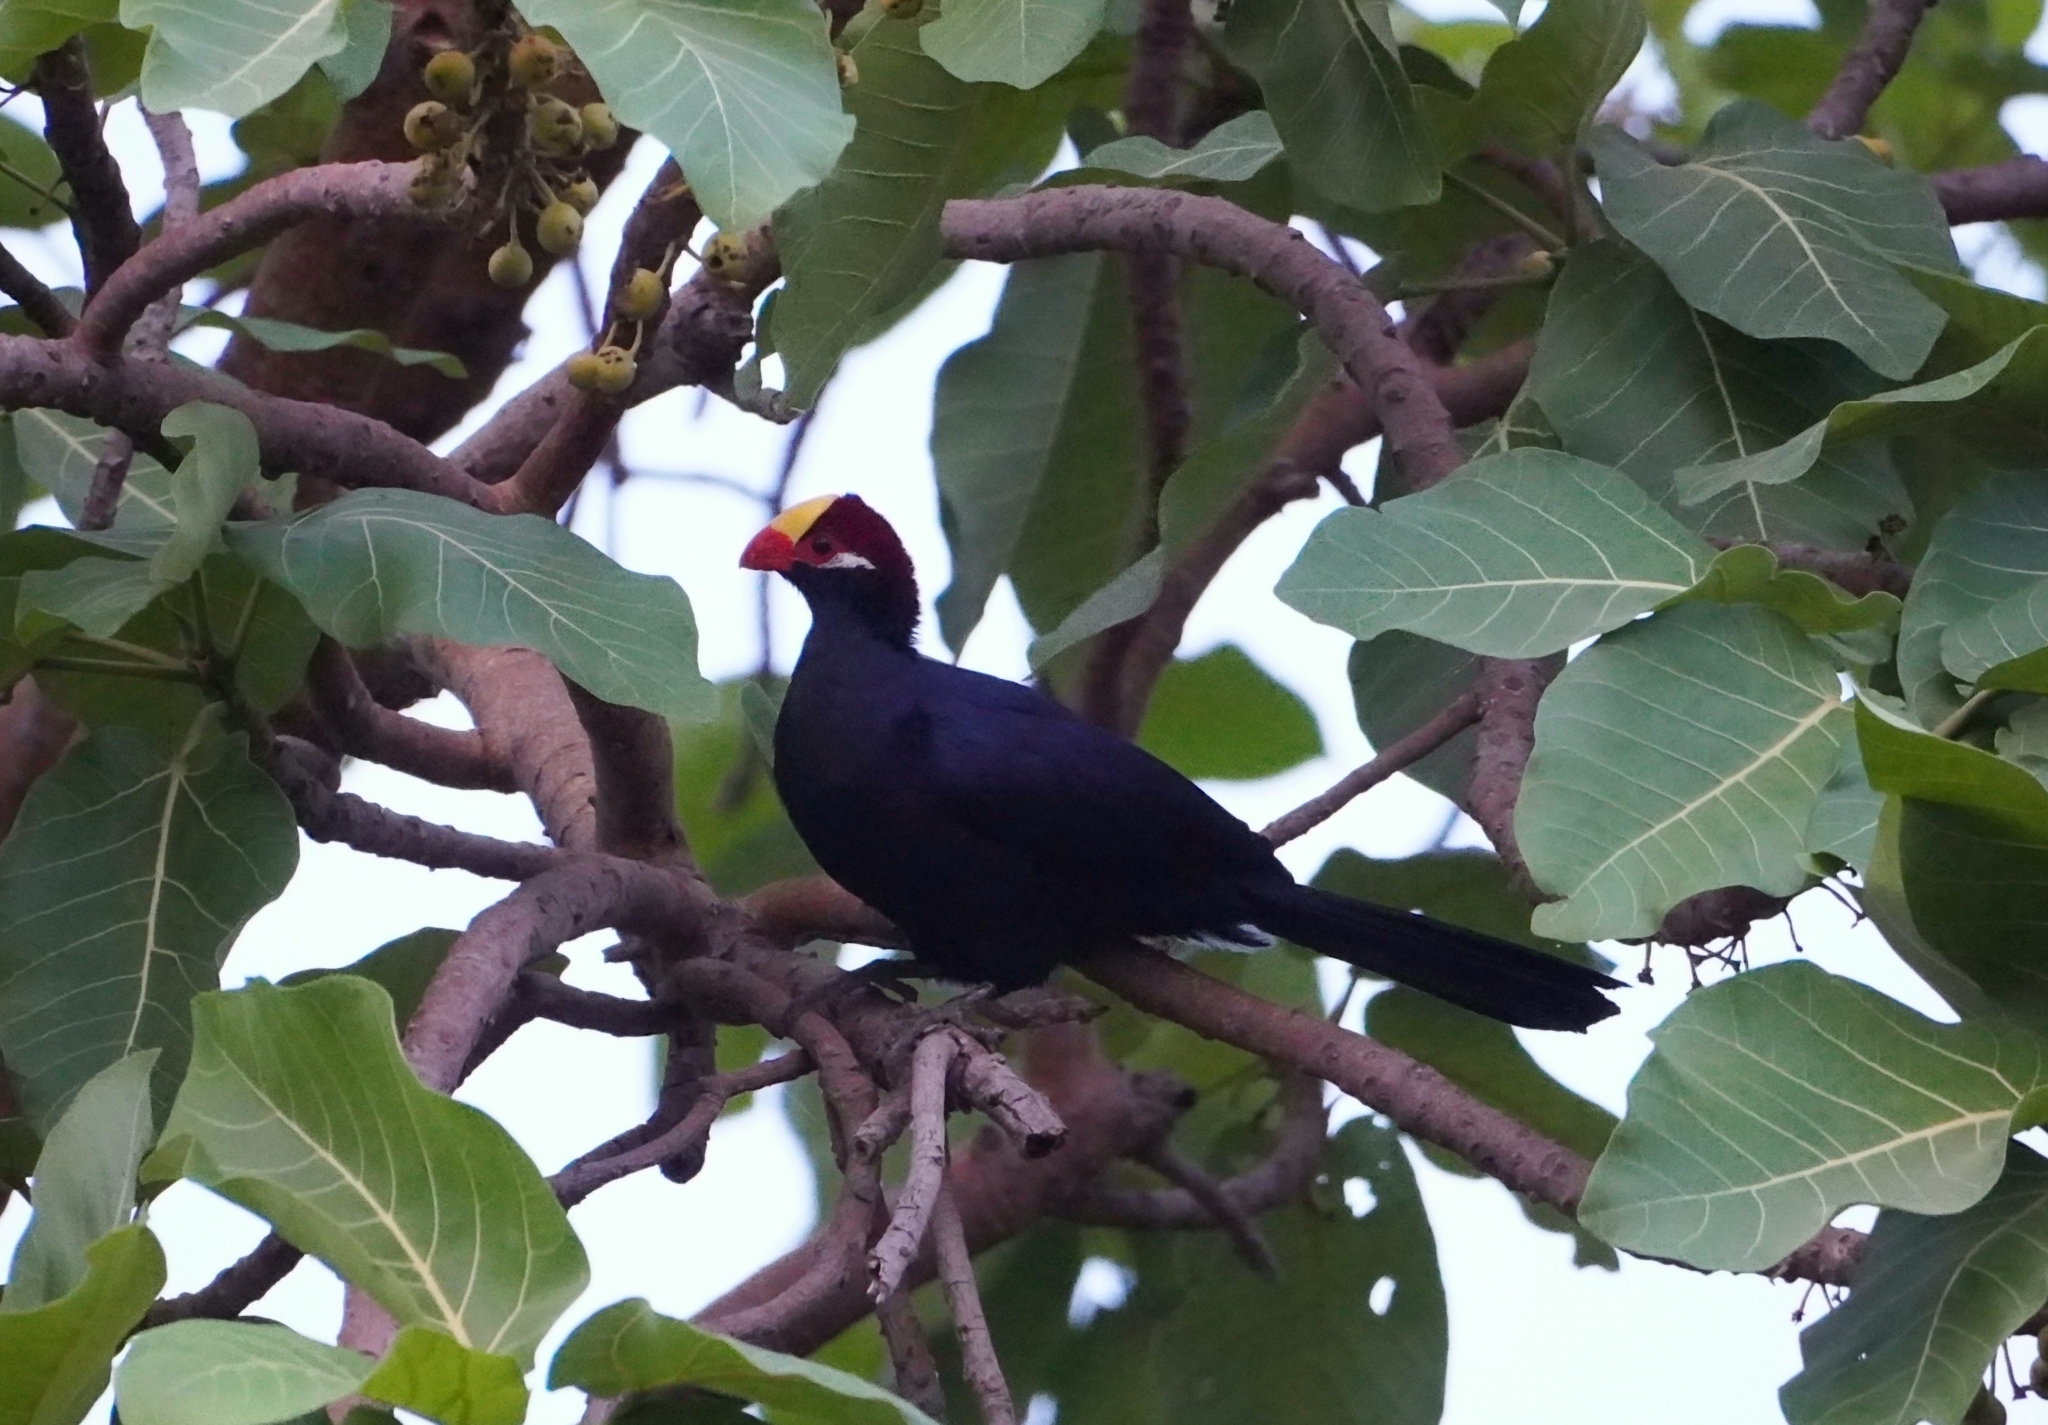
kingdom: Animalia
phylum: Chordata
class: Aves
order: Musophagiformes
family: Musophagidae
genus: Musophaga
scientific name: Musophaga violacea
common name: Violet turaco
